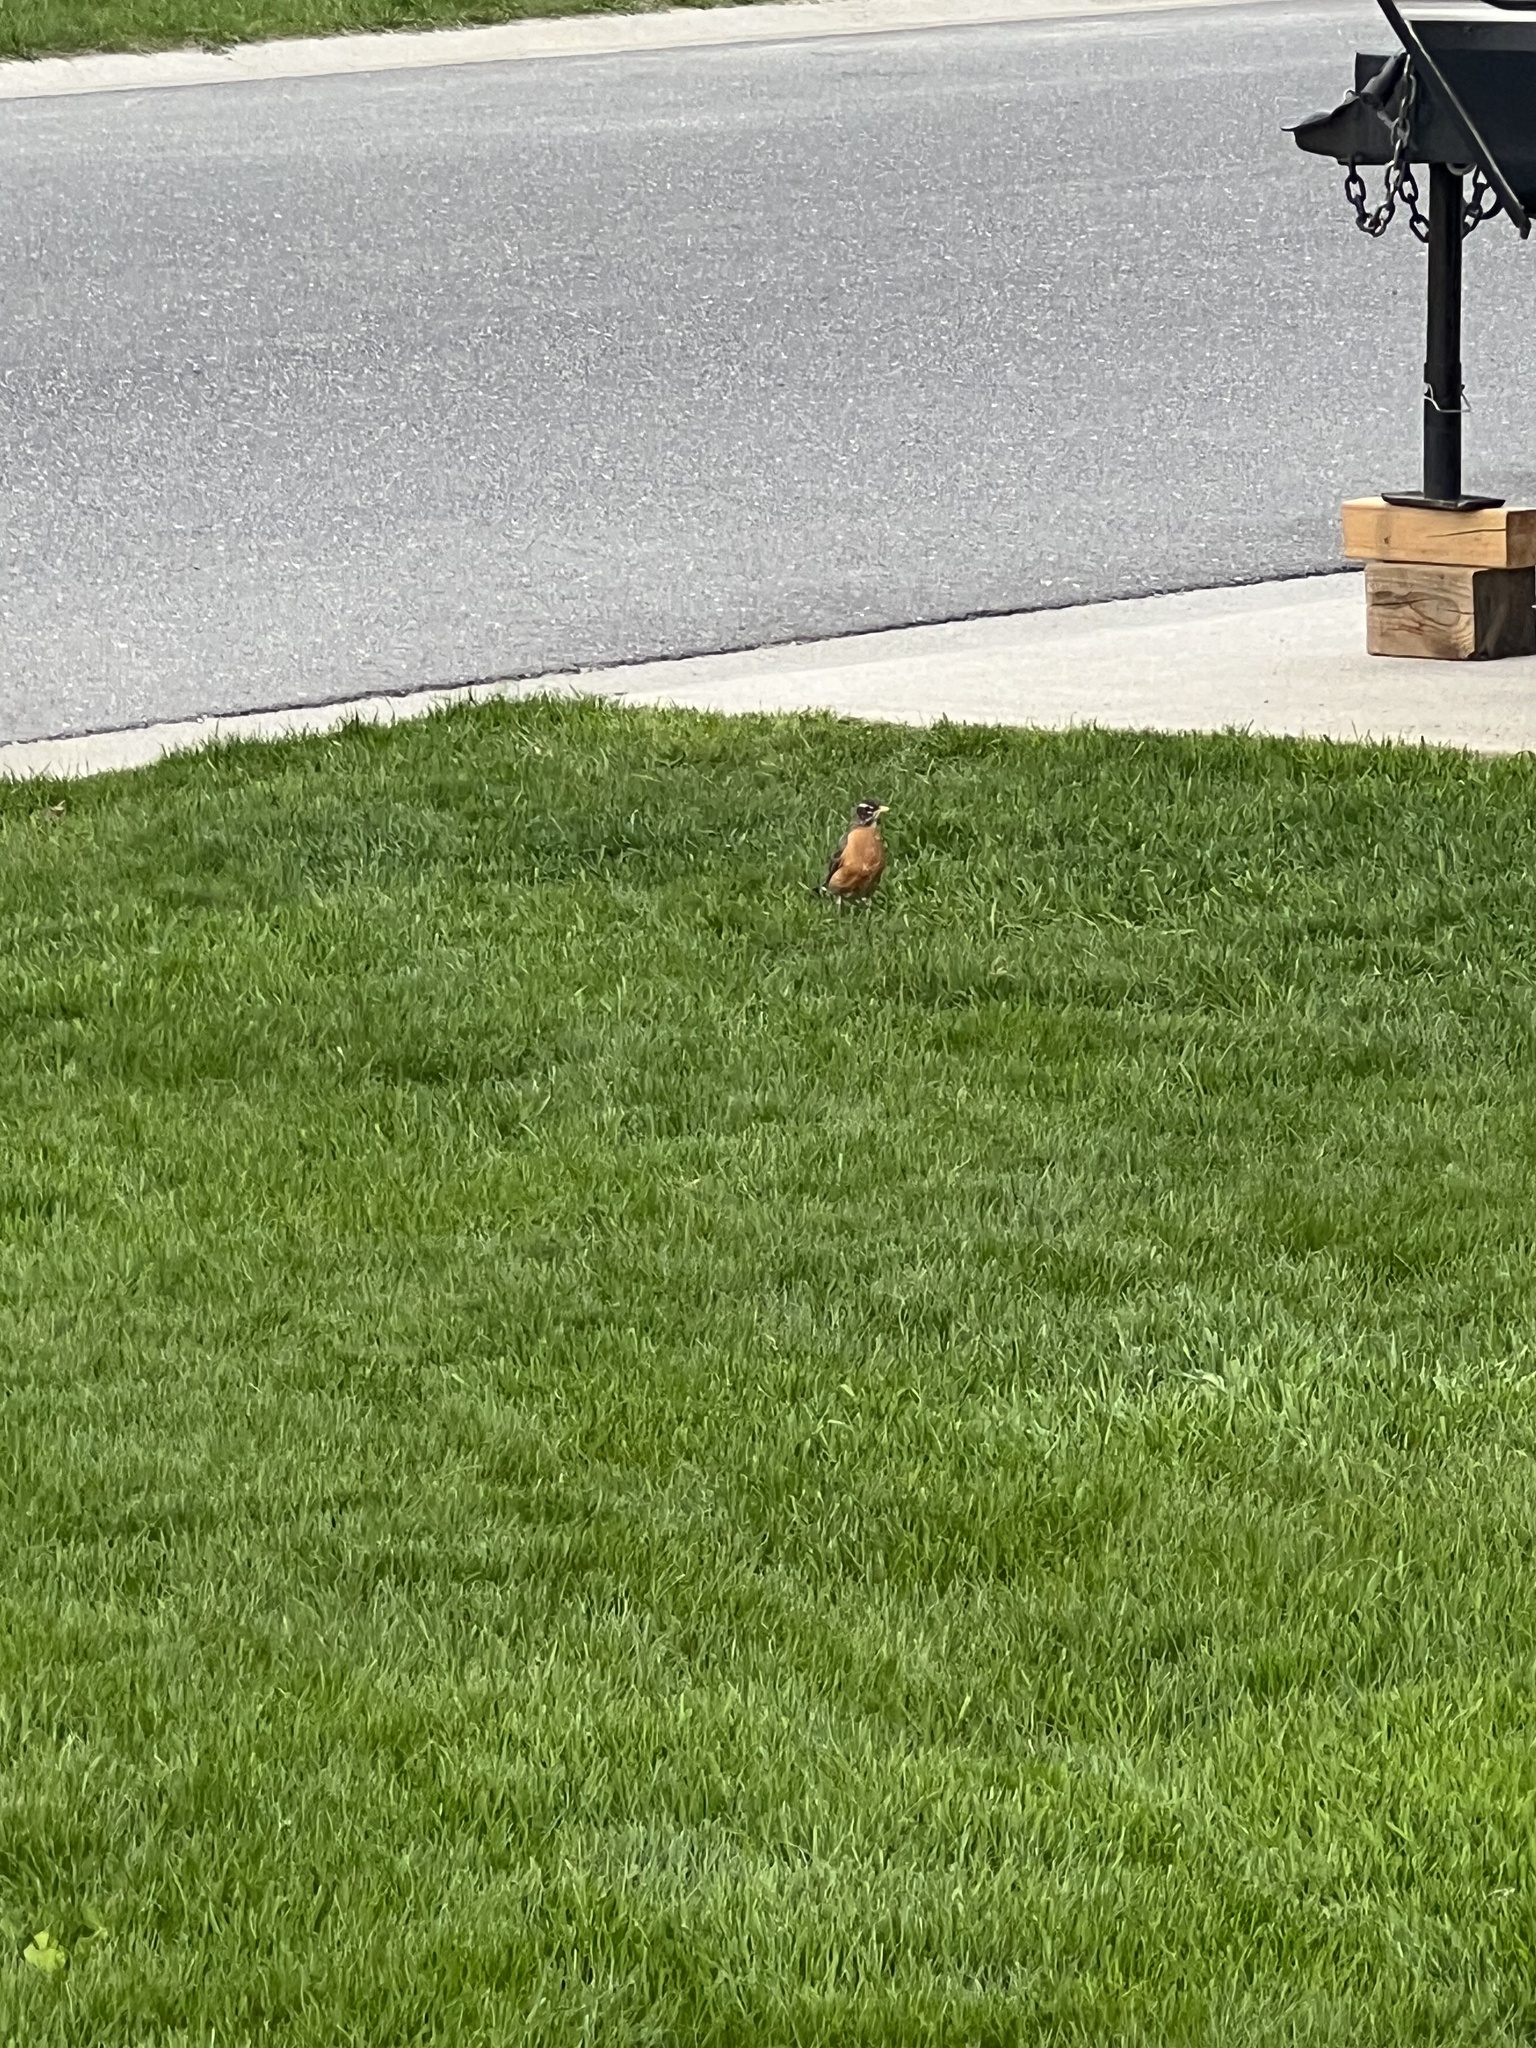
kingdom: Animalia
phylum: Chordata
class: Aves
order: Passeriformes
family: Turdidae
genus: Turdus
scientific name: Turdus migratorius
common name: American robin
